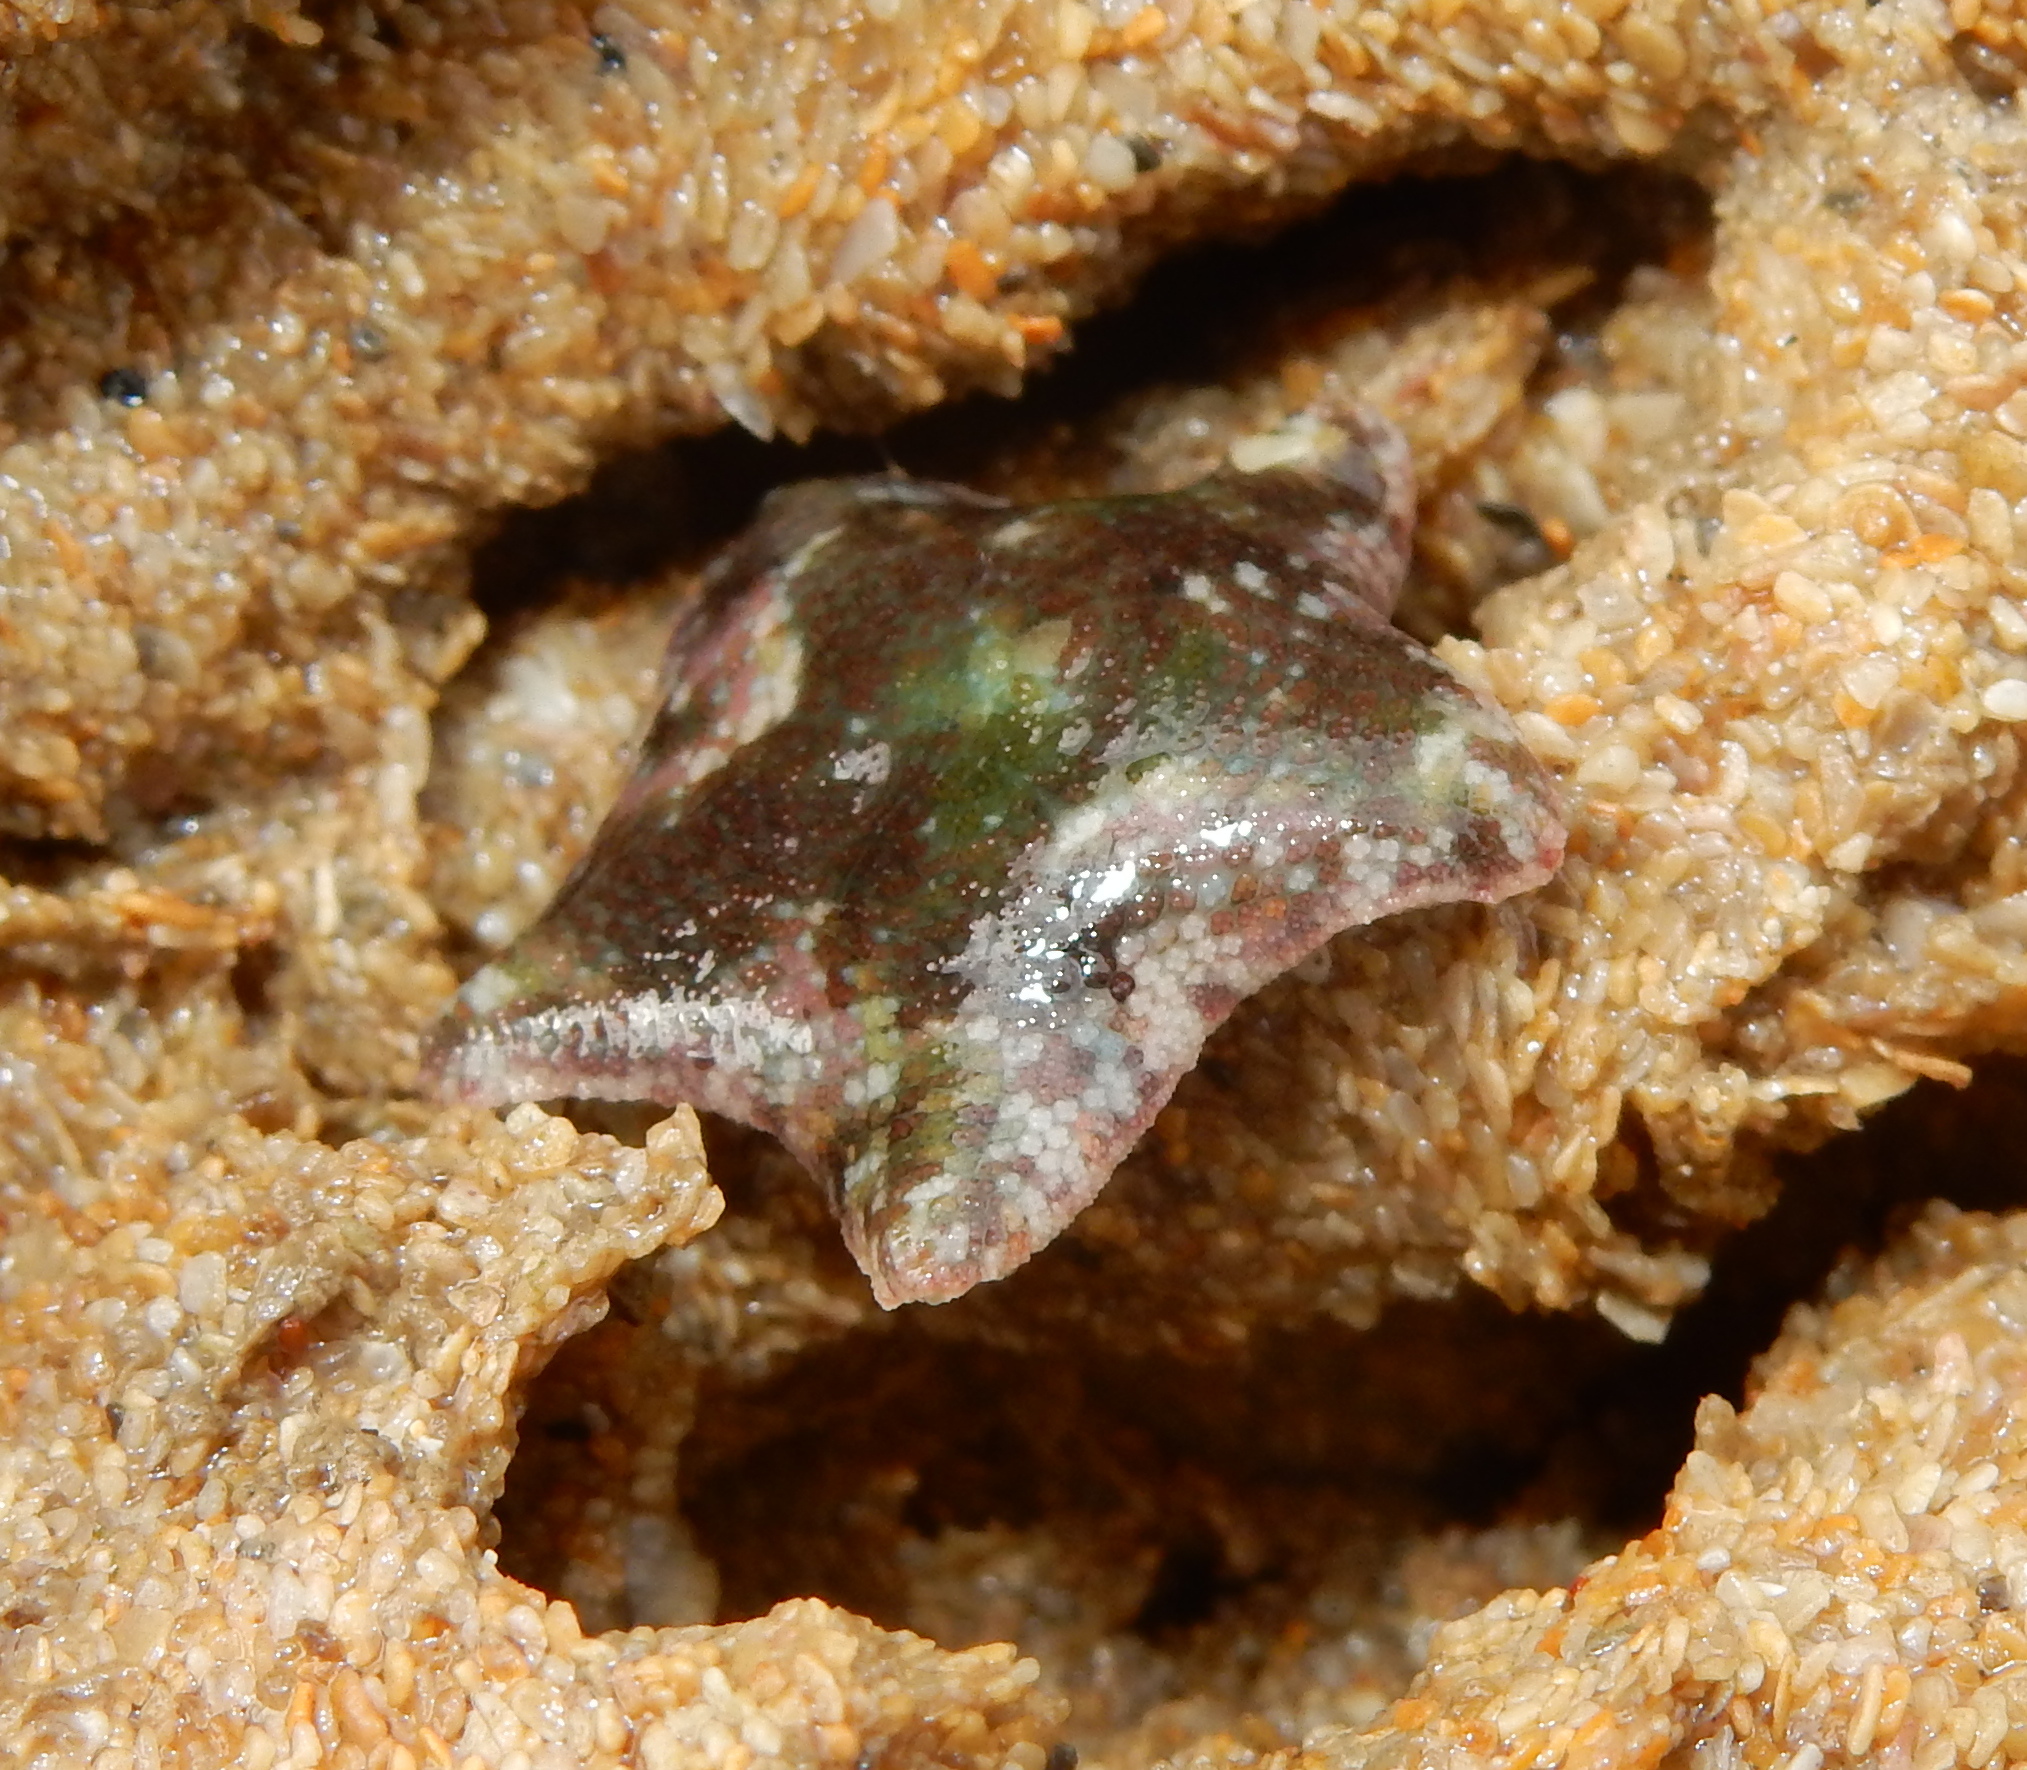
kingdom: Animalia
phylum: Echinodermata
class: Asteroidea
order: Valvatida
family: Asterinidae
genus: Parvulastra
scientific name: Parvulastra exigua
